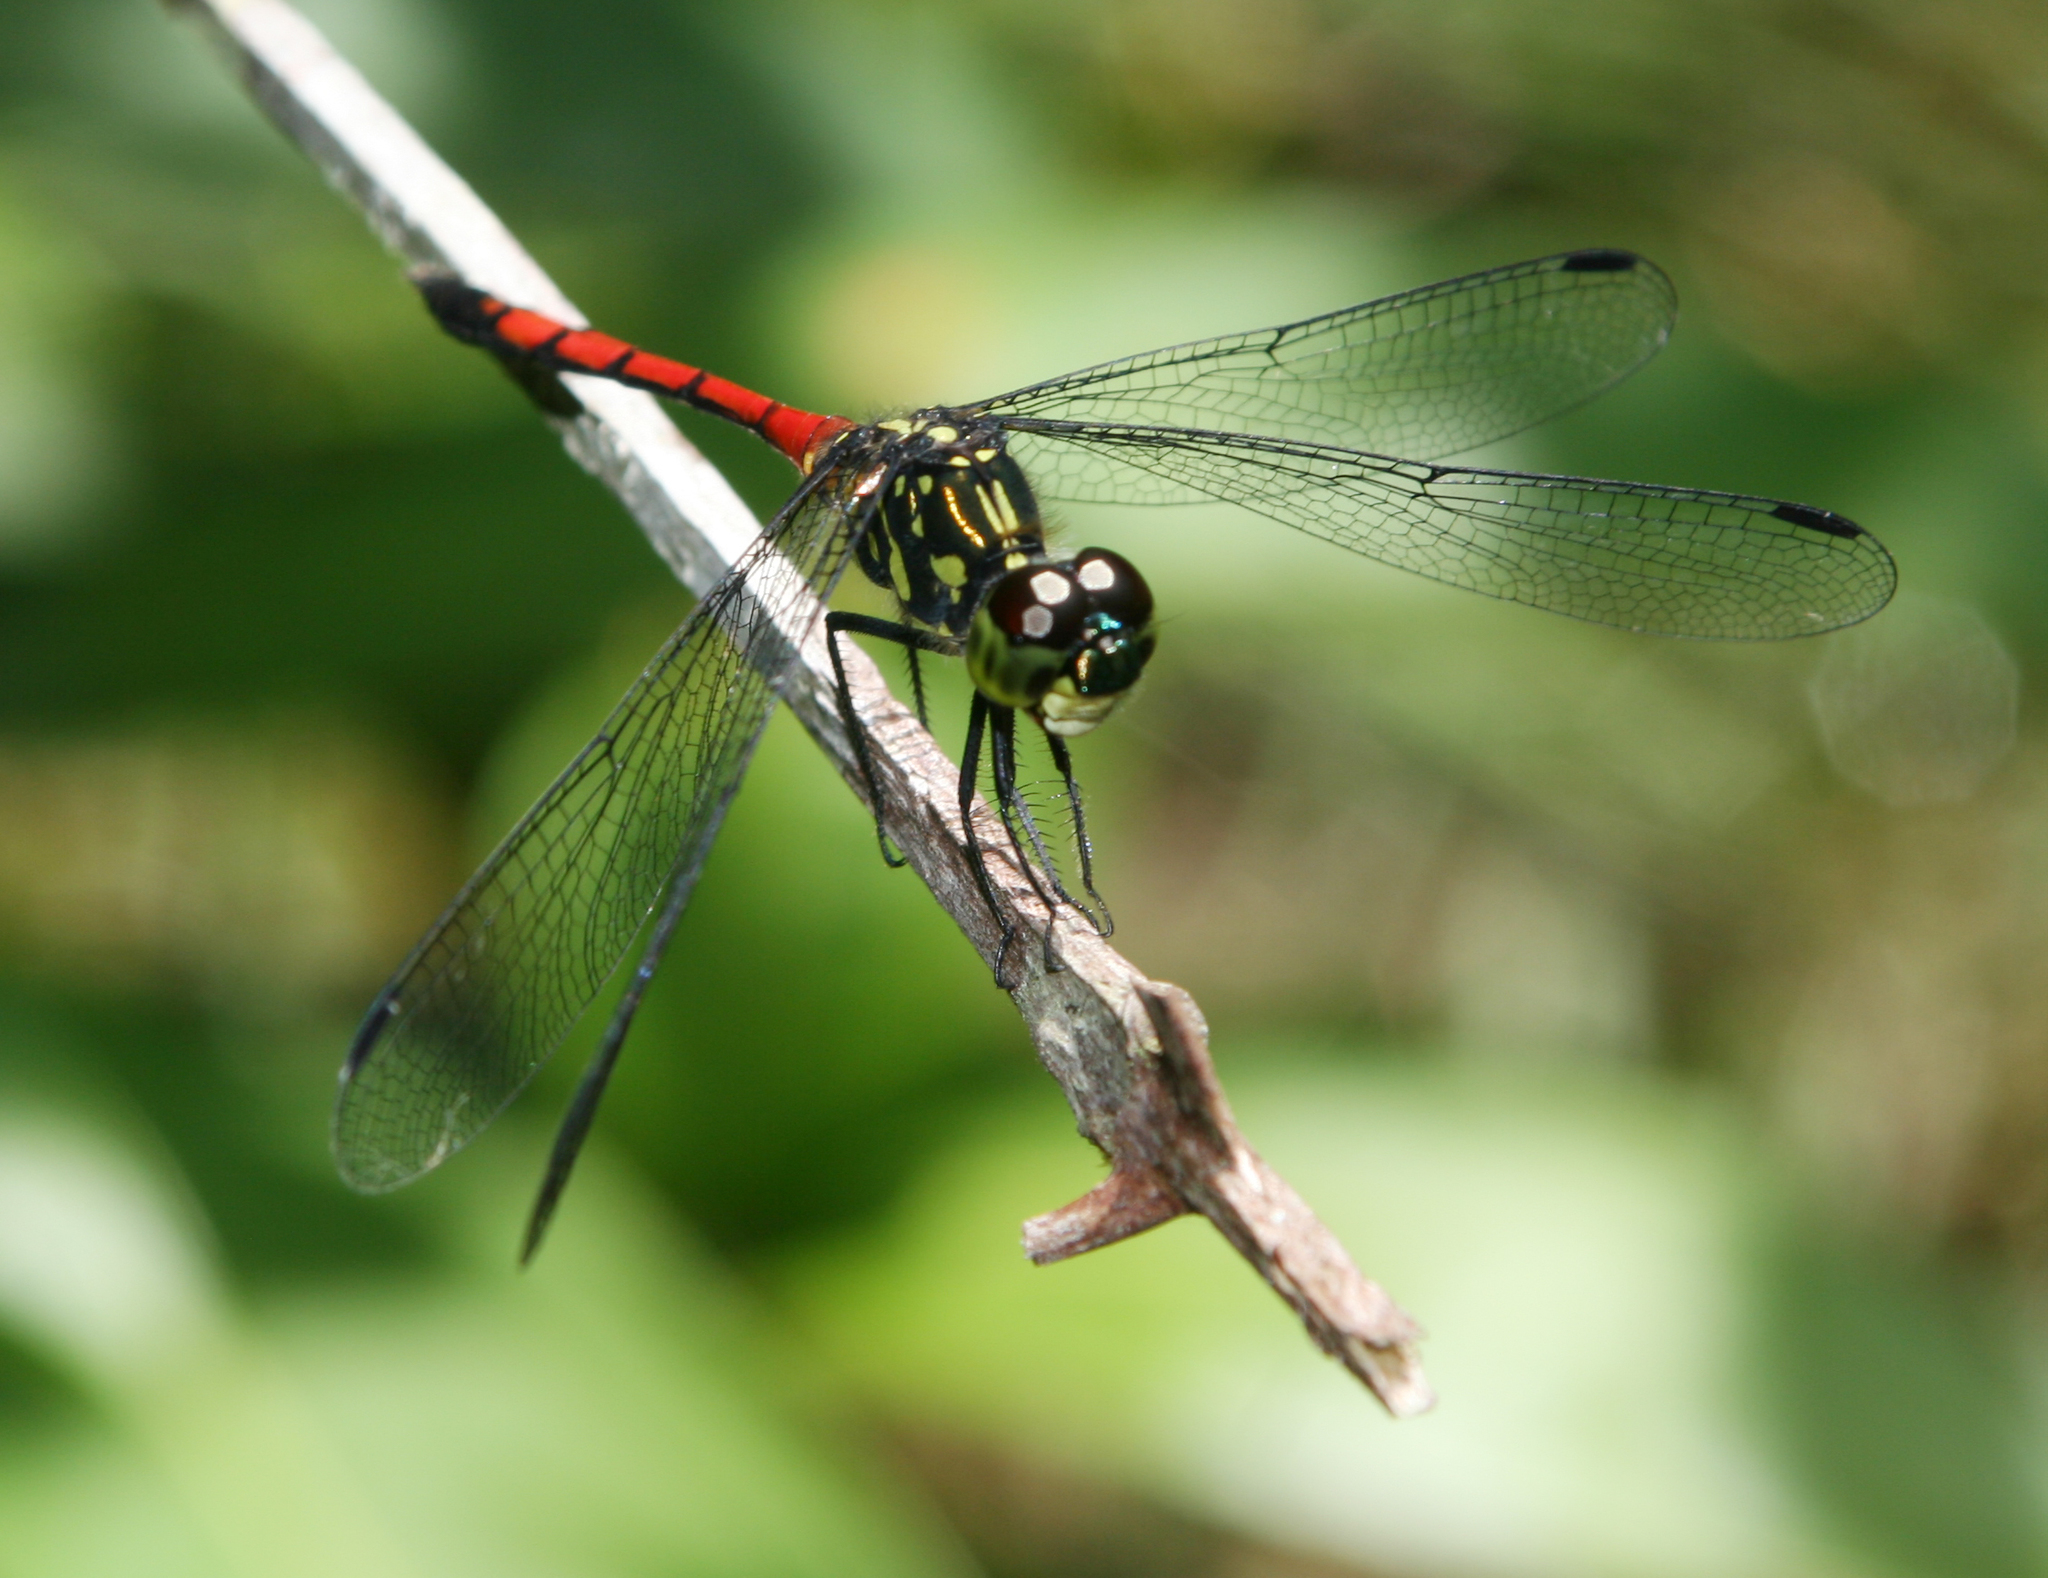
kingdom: Animalia
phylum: Arthropoda
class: Insecta
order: Odonata
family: Libellulidae
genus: Agrionoptera
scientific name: Agrionoptera insignis
